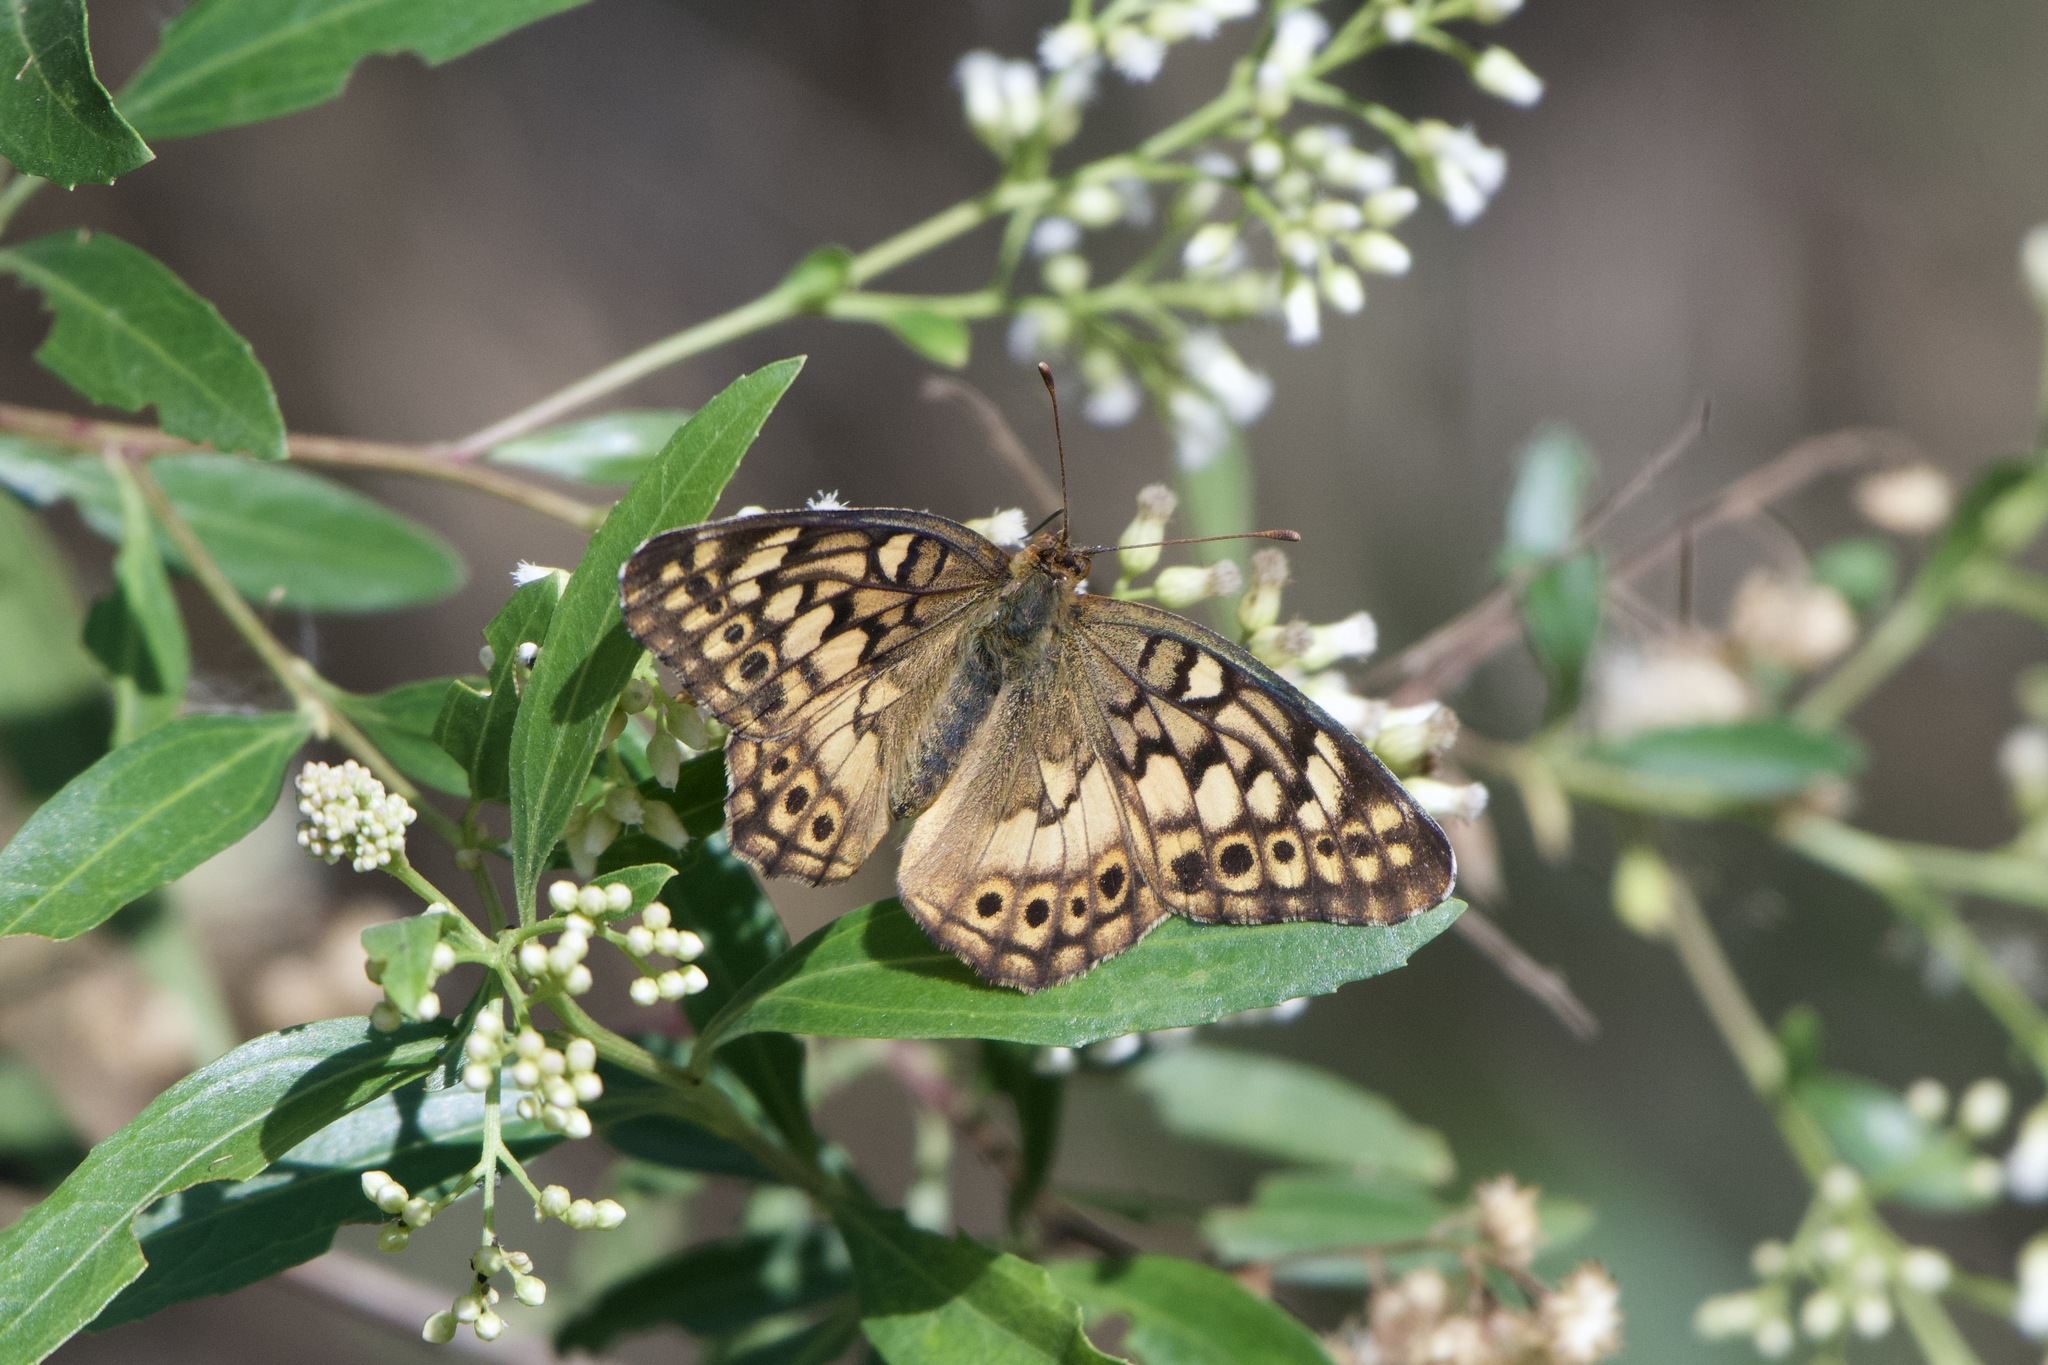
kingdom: Animalia
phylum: Arthropoda
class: Insecta
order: Lepidoptera
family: Nymphalidae
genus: Euptoieta
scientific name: Euptoieta hortensia
